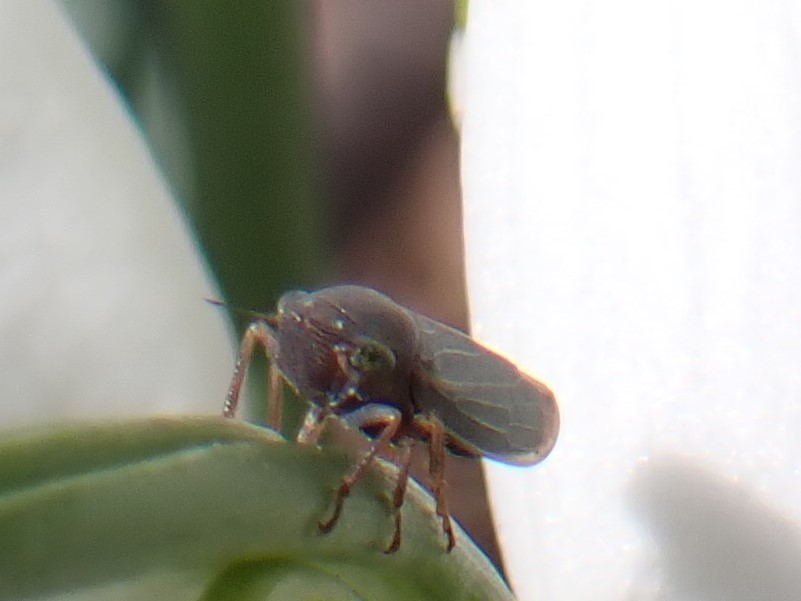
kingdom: Animalia
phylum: Arthropoda
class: Insecta
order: Hemiptera
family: Cicadellidae
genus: Helochara
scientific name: Helochara communis
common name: Bog leafhopper
